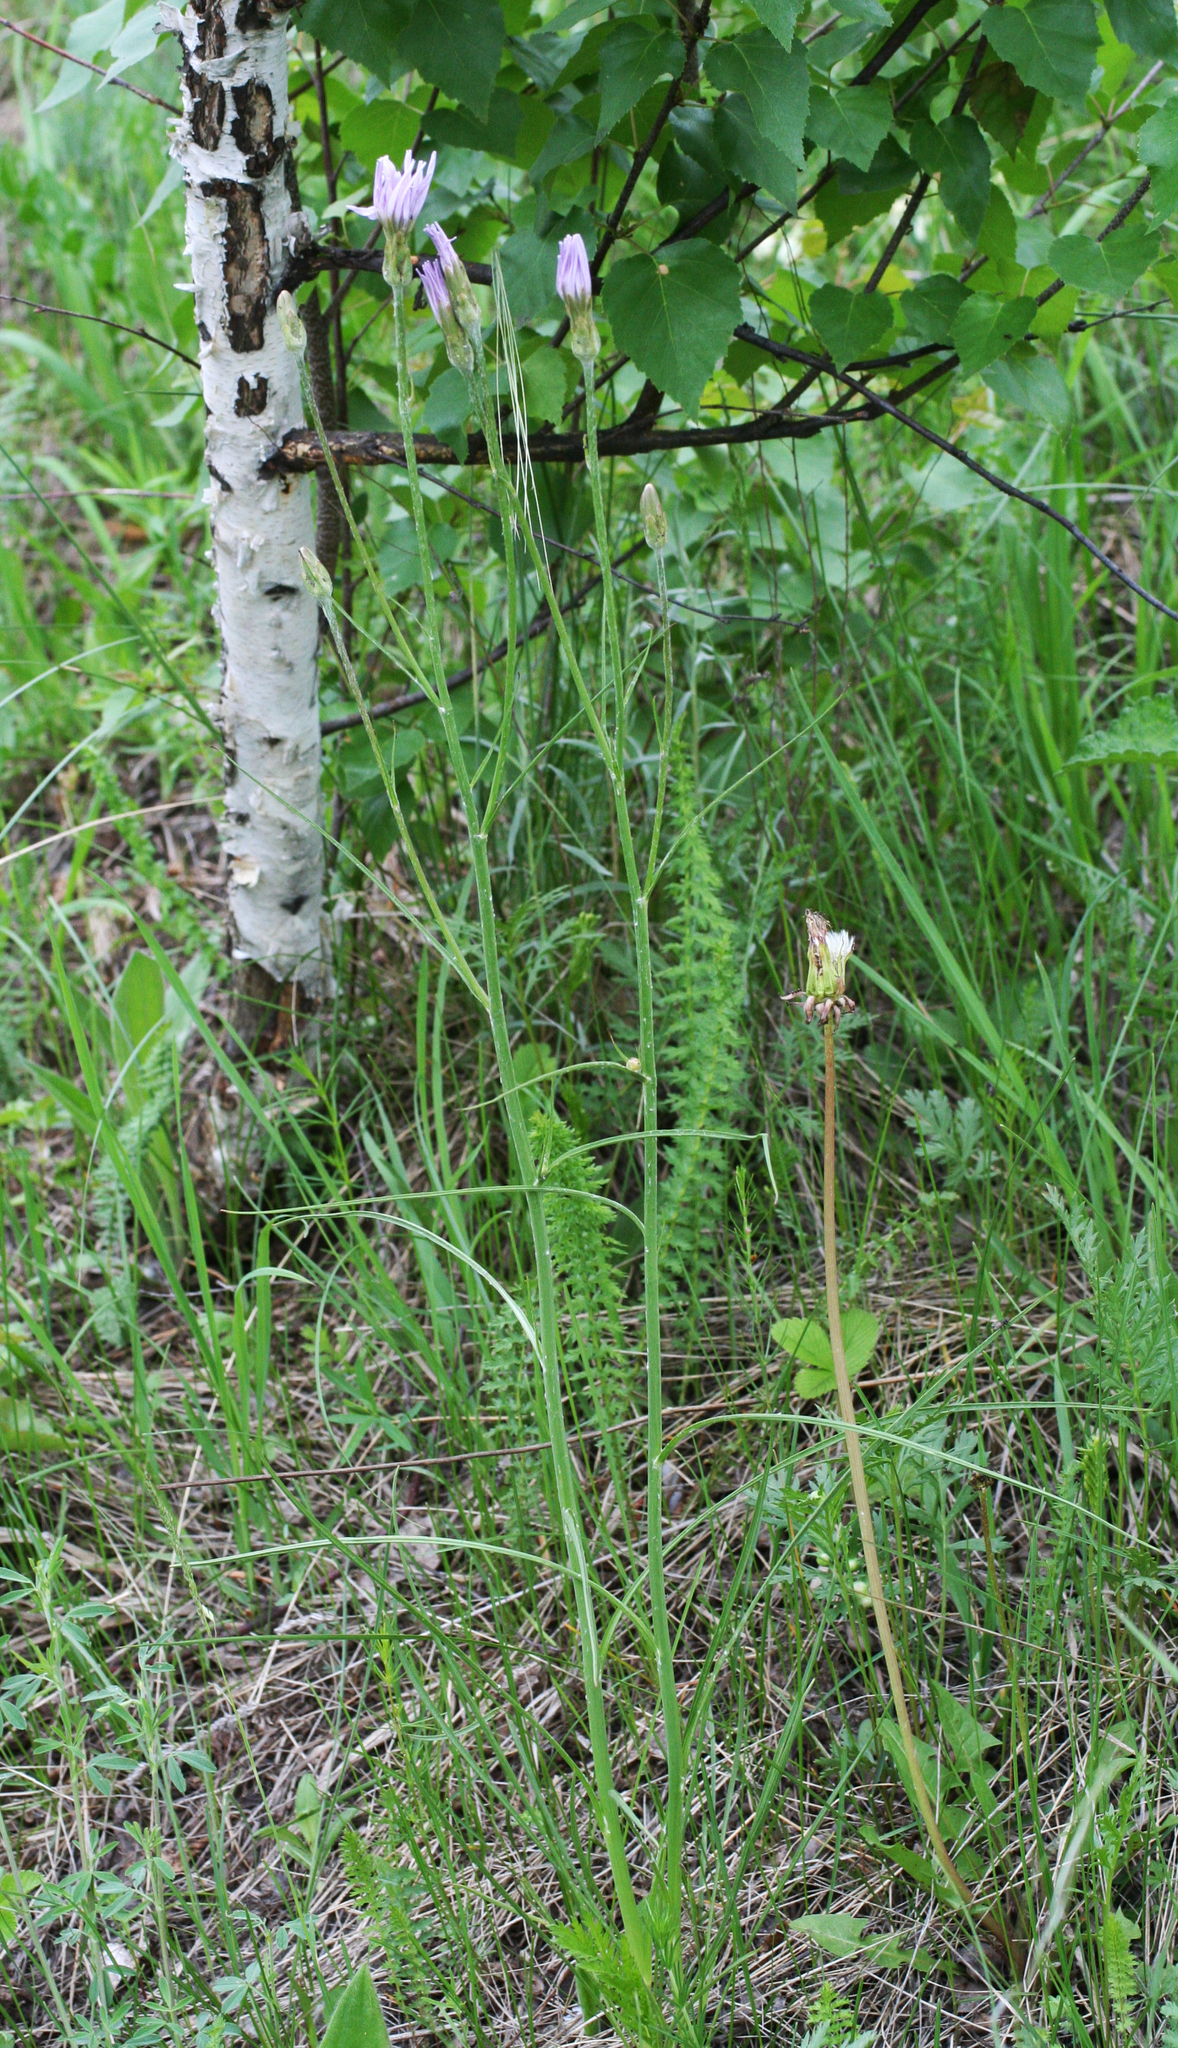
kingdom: Plantae
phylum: Tracheophyta
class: Magnoliopsida
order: Asterales
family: Asteraceae
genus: Scorzonera
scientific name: Scorzonera purpurea
